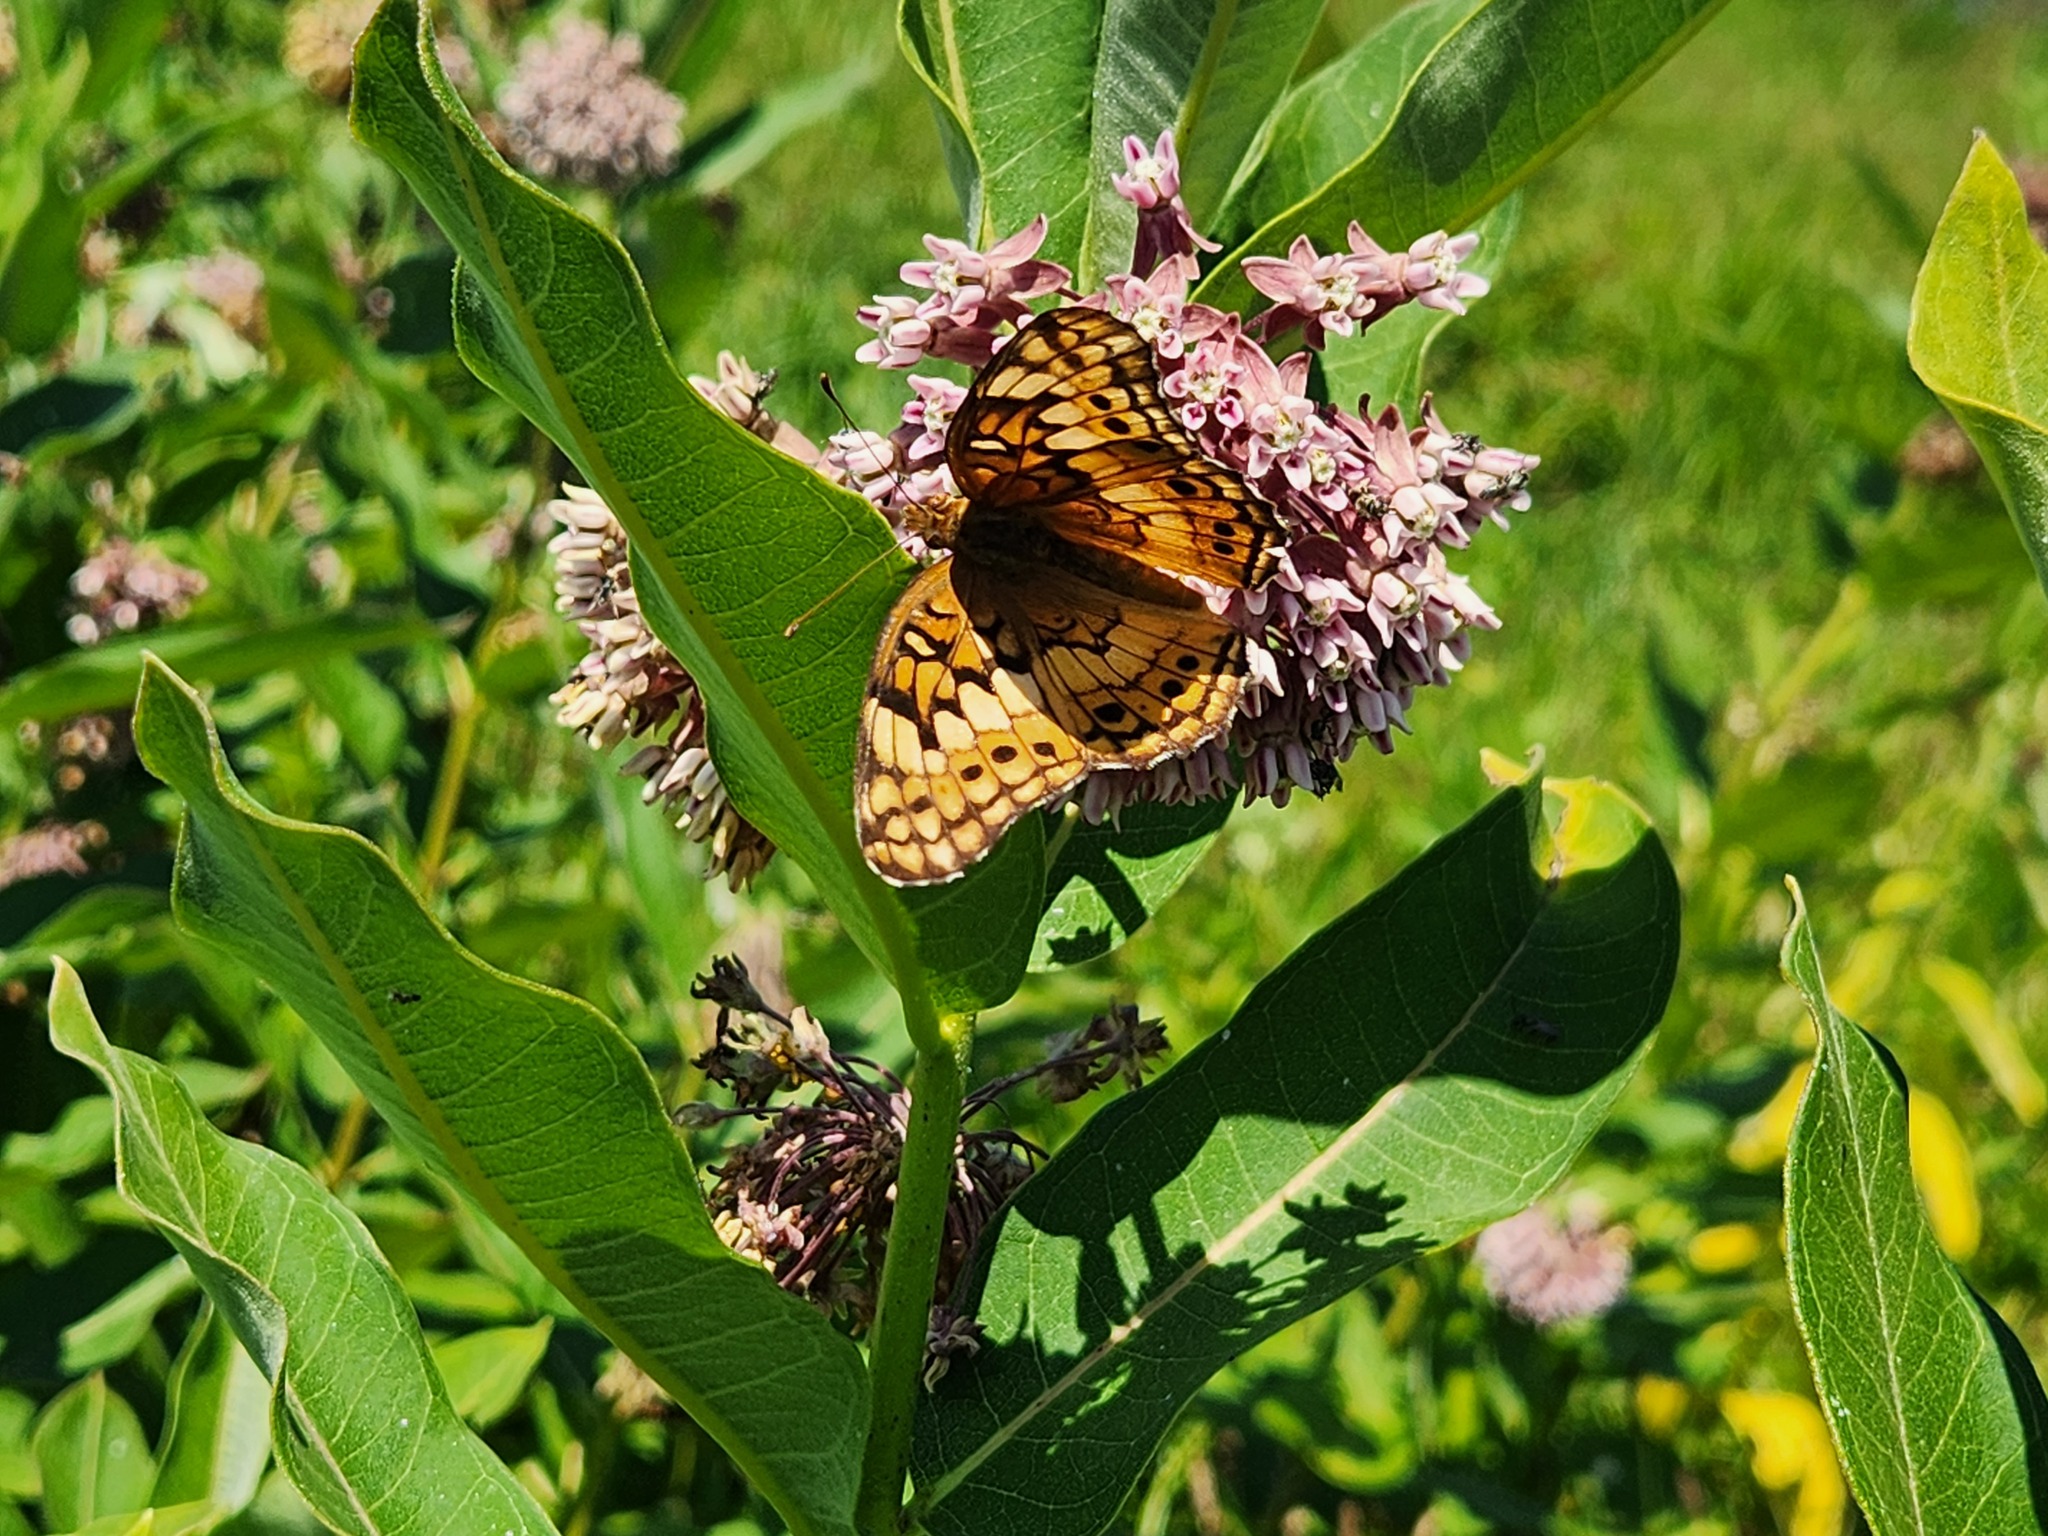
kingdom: Animalia
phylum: Arthropoda
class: Insecta
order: Lepidoptera
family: Nymphalidae
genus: Euptoieta
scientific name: Euptoieta claudia
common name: Variegated fritillary
